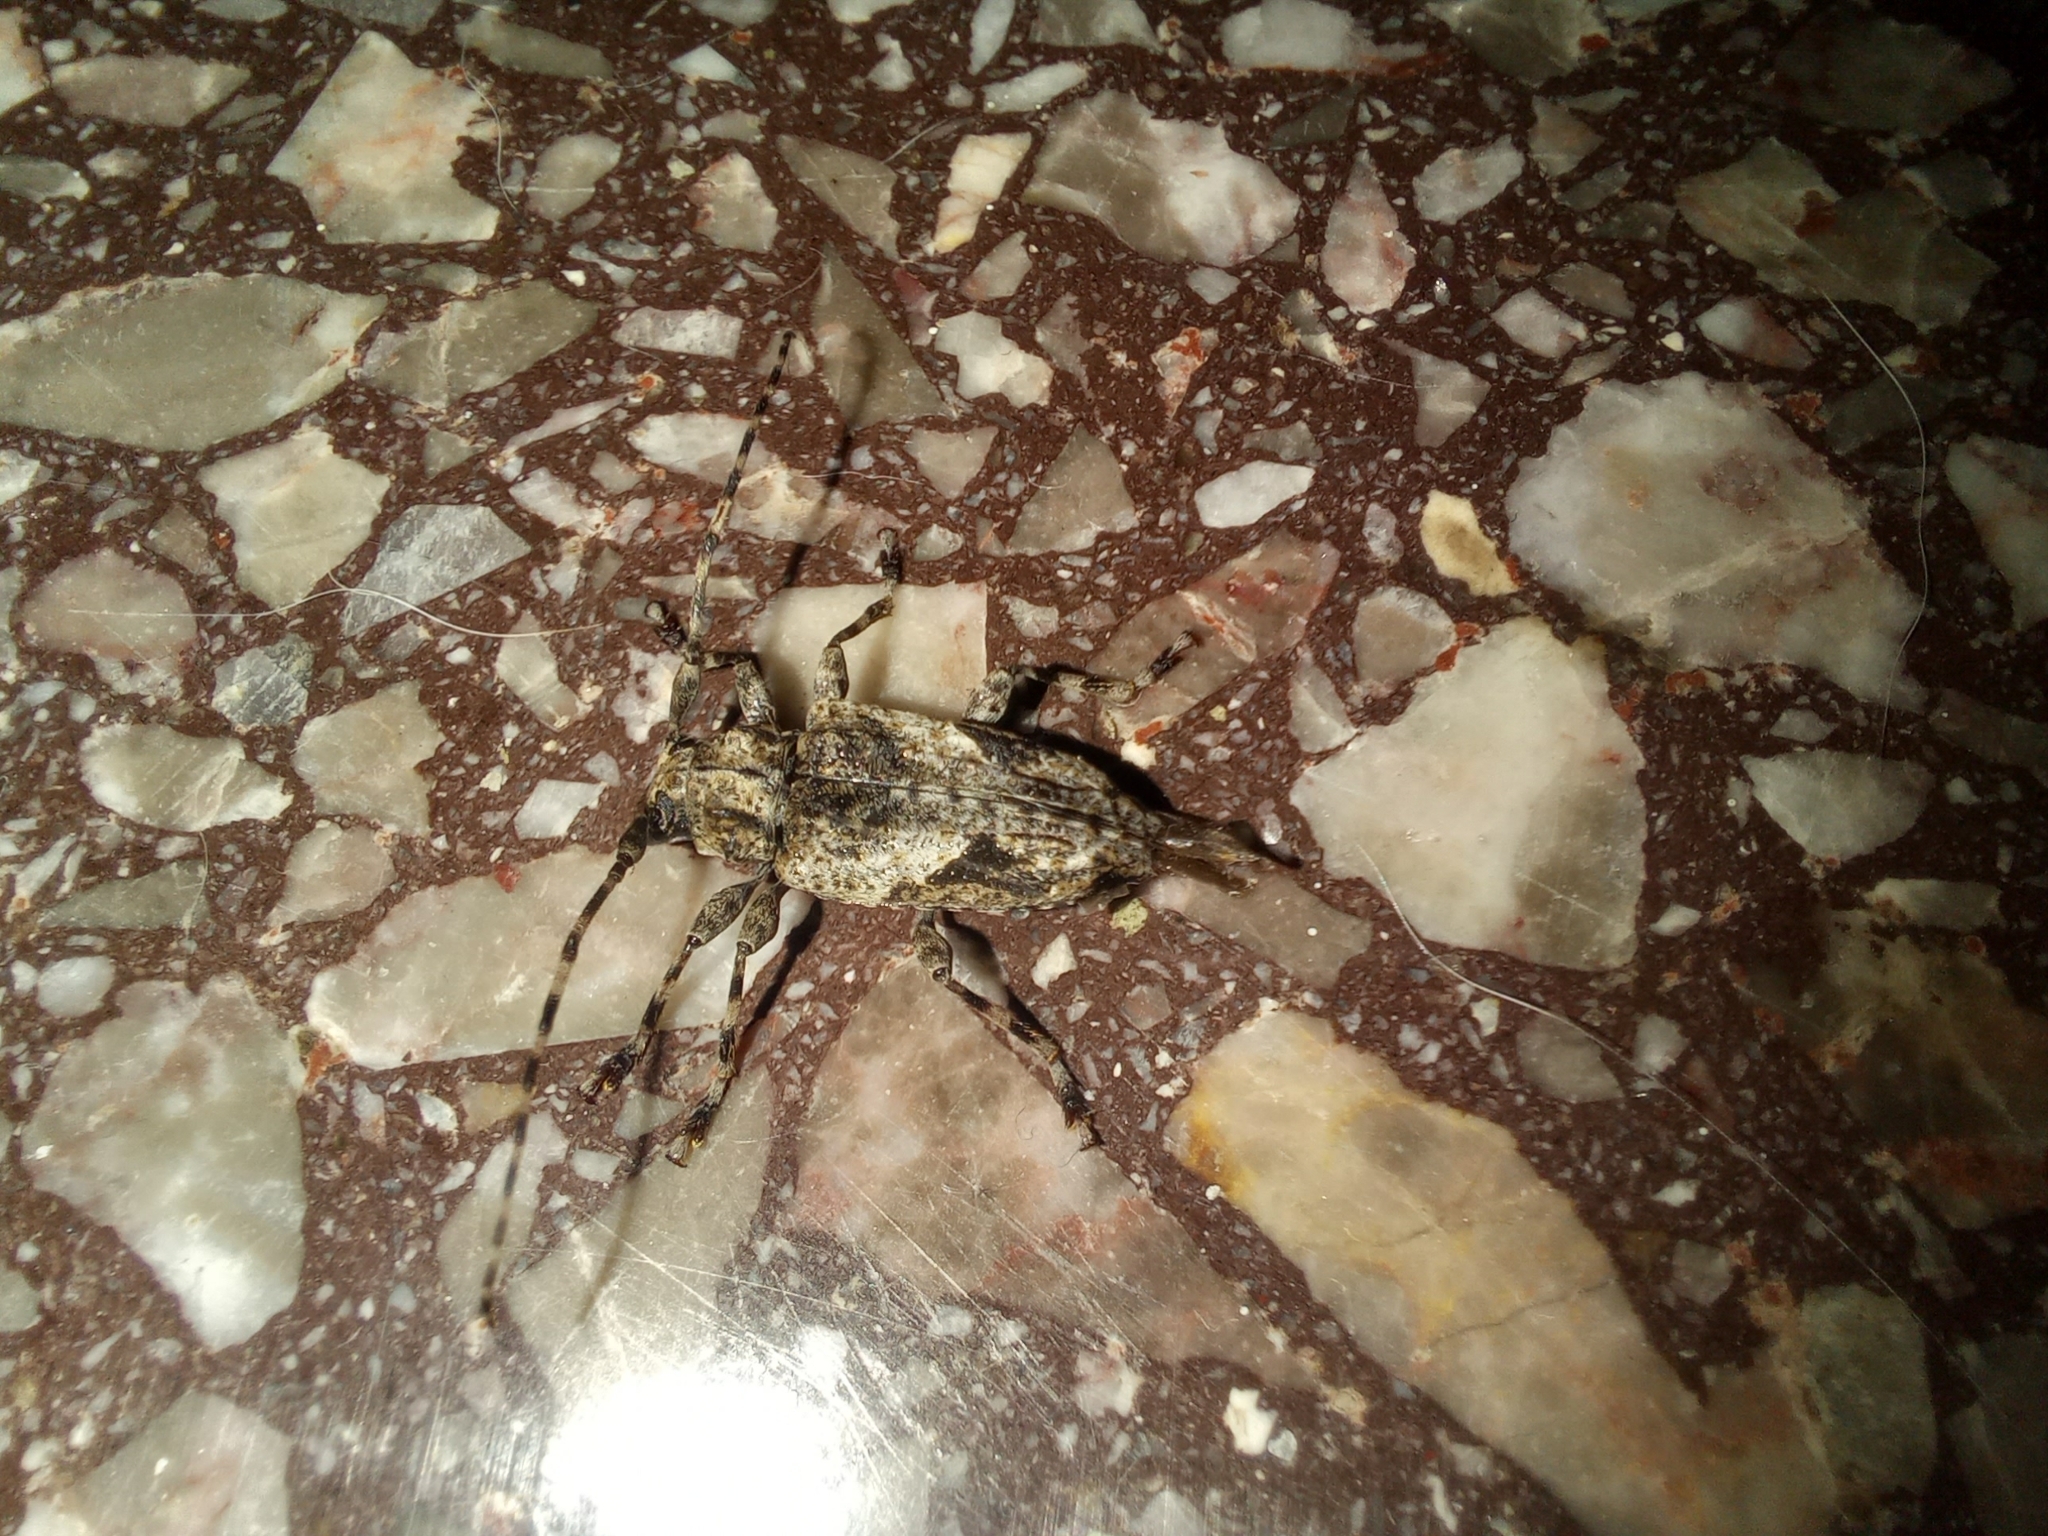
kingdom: Animalia
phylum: Arthropoda
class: Insecta
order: Coleoptera
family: Cerambycidae
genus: Psapharochrus
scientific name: Psapharochrus jaspideus
